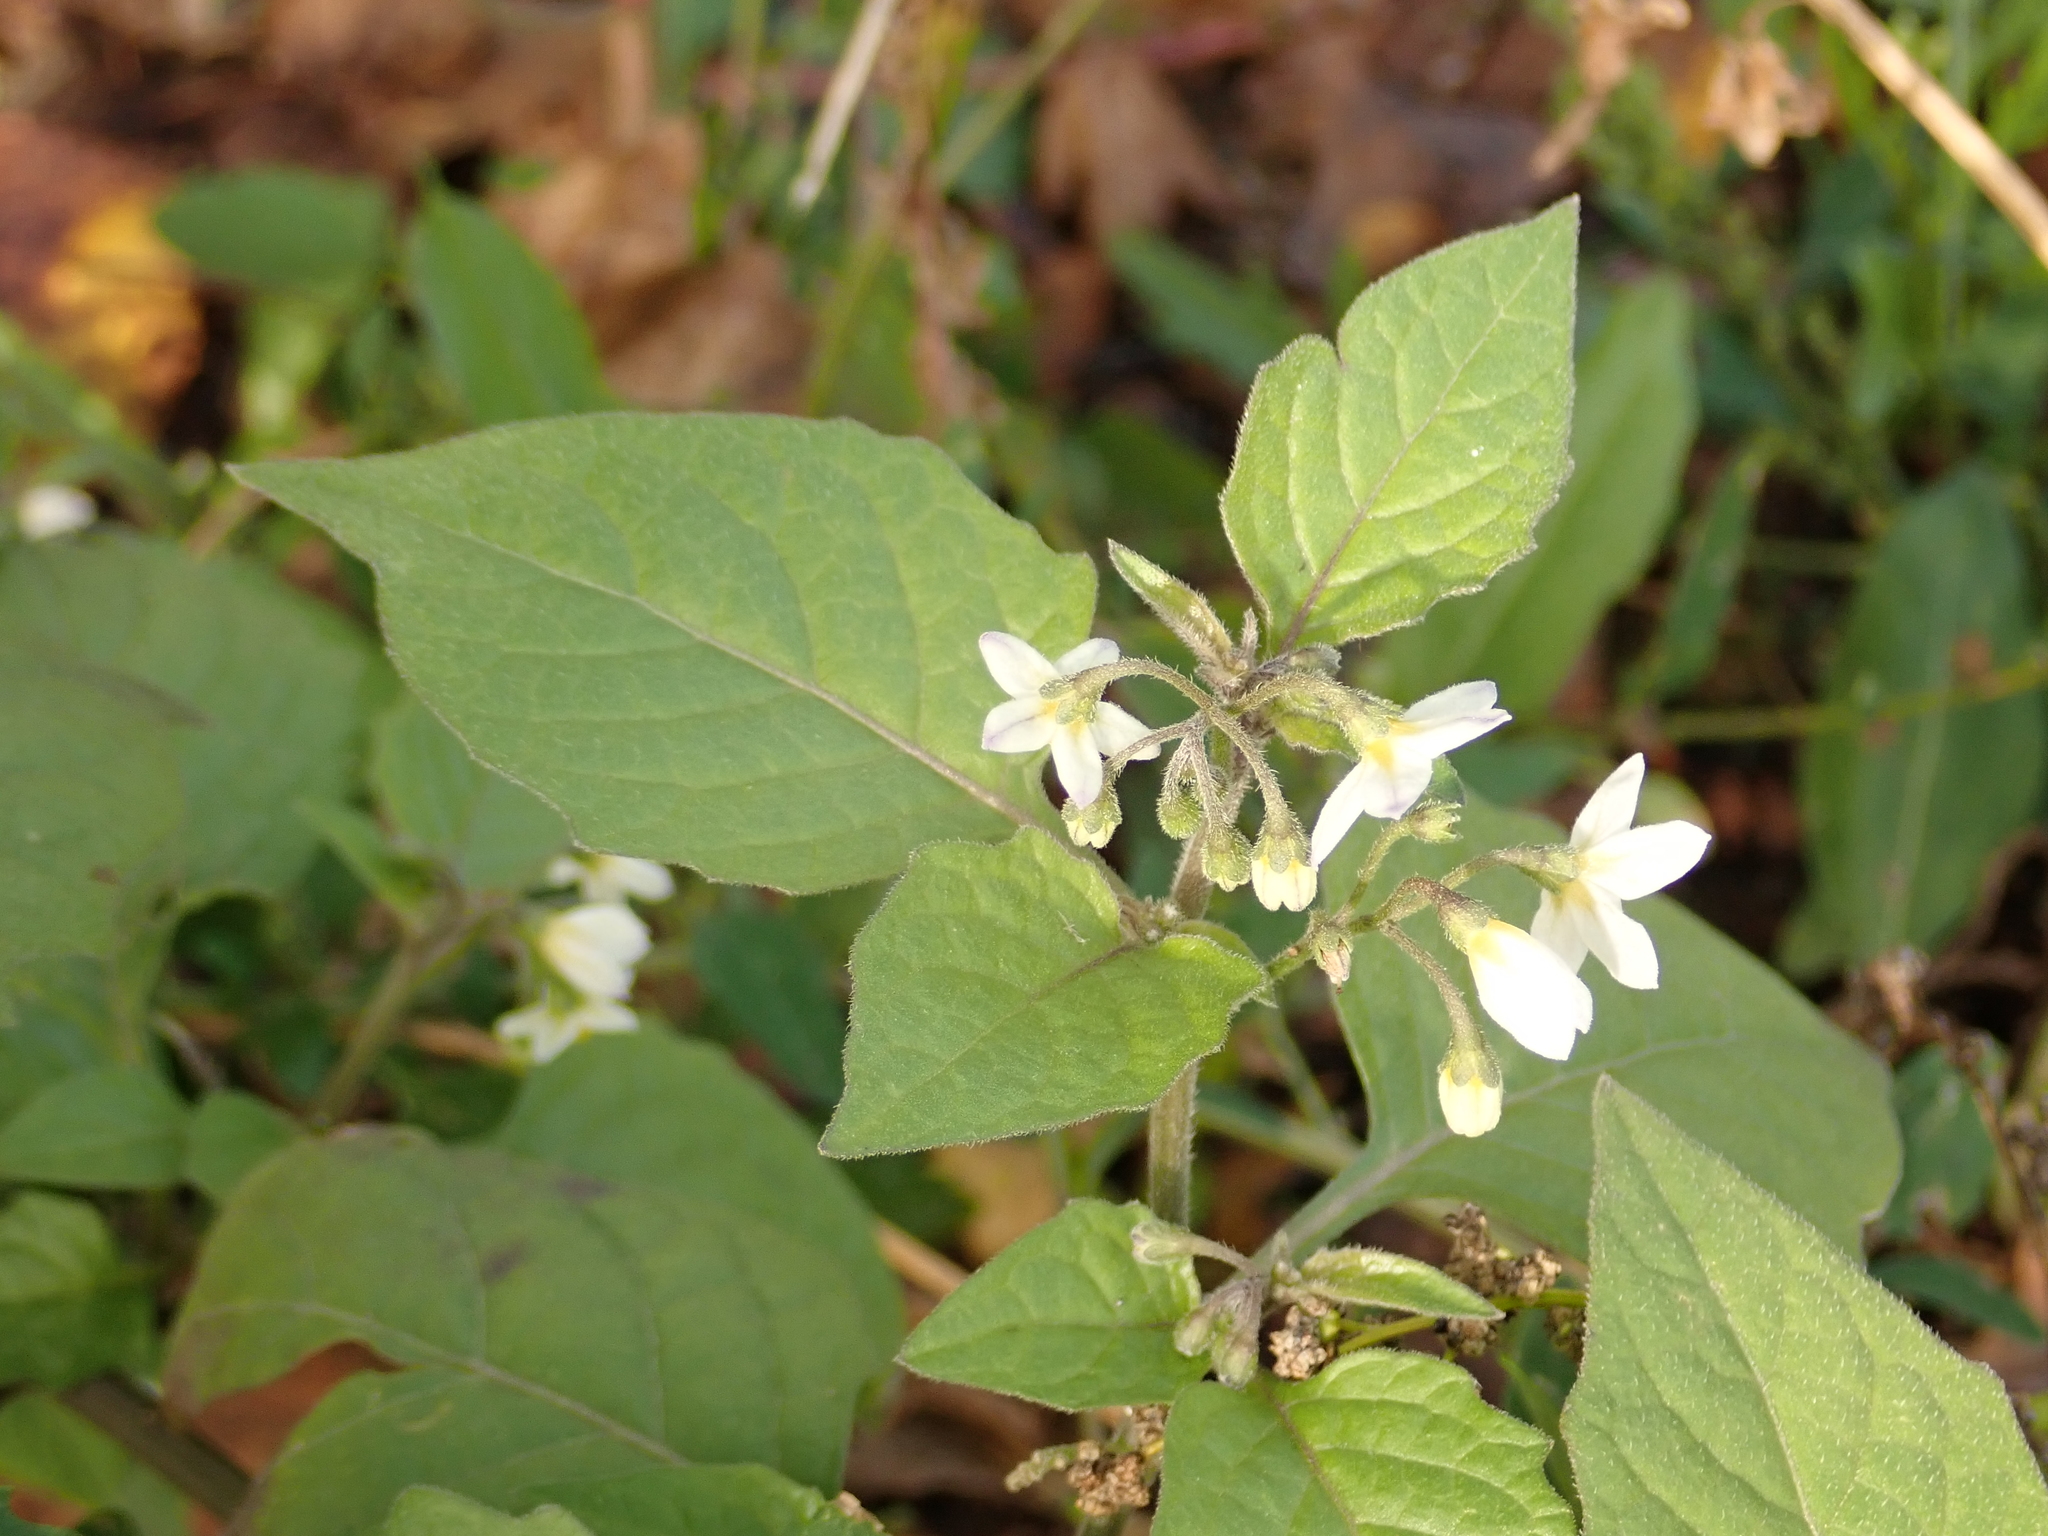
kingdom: Plantae
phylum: Tracheophyta
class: Magnoliopsida
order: Solanales
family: Solanaceae
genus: Solanum
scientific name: Solanum nigrum
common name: Black nightshade
